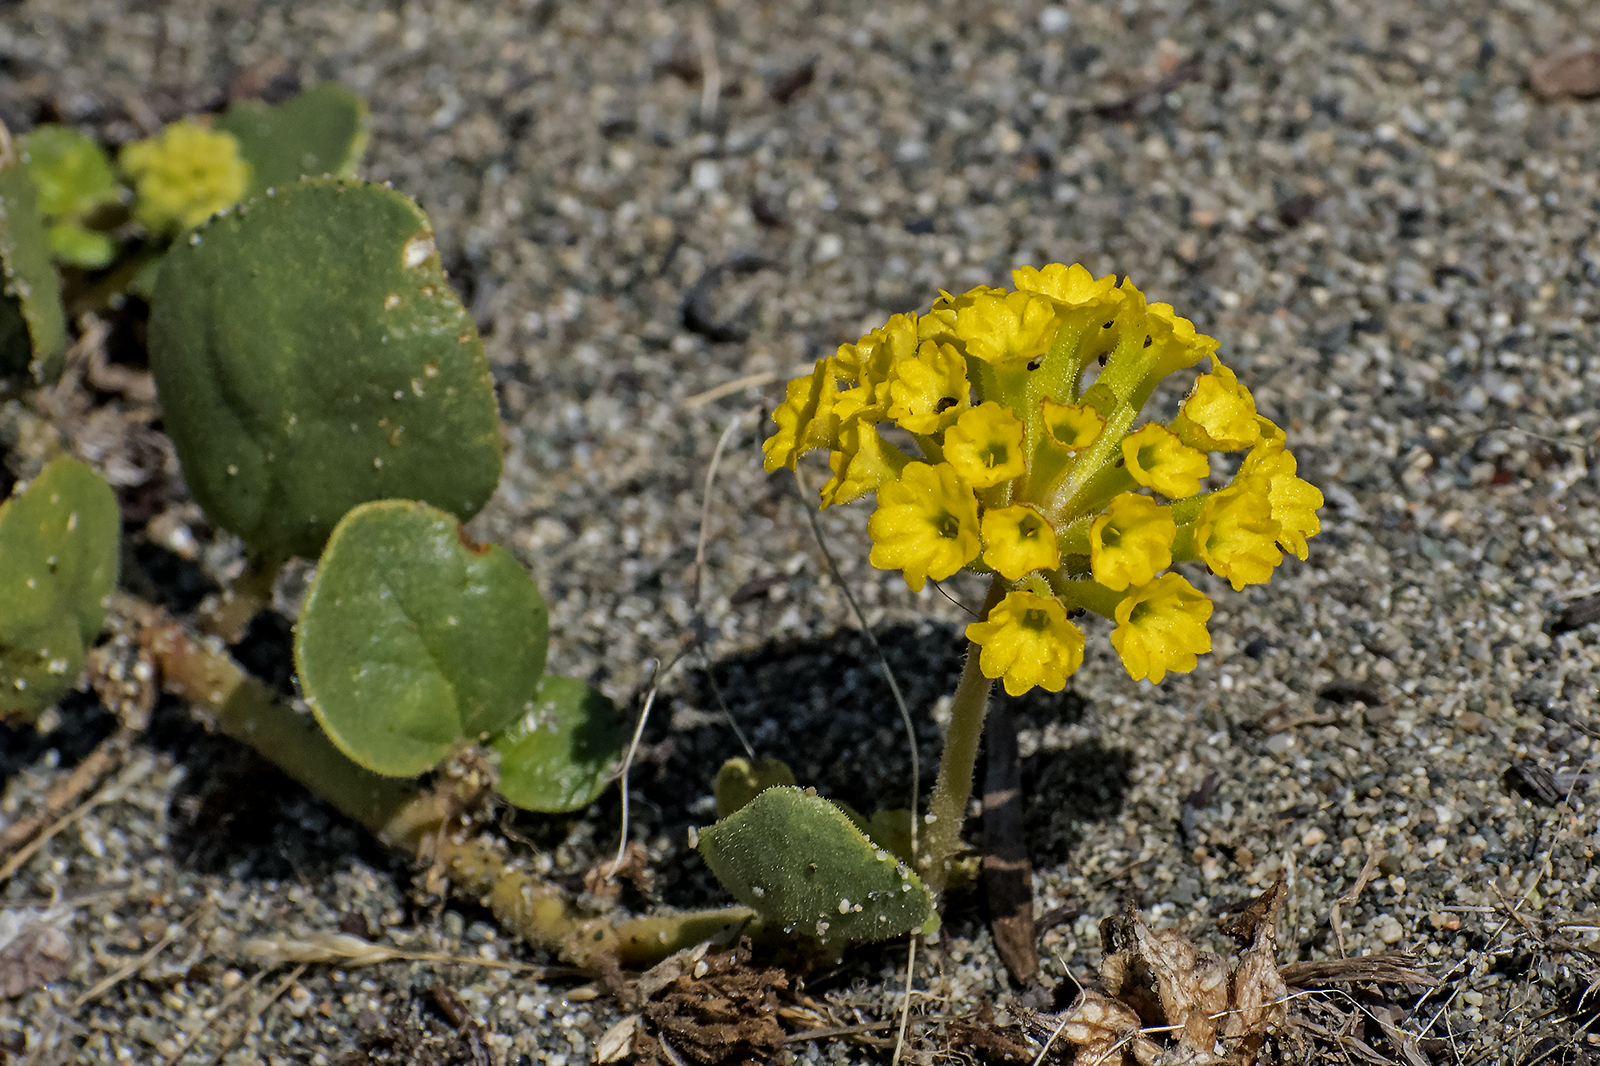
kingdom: Plantae
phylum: Tracheophyta
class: Magnoliopsida
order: Caryophyllales
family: Nyctaginaceae
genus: Abronia
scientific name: Abronia latifolia
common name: Yellow sand-verbena
